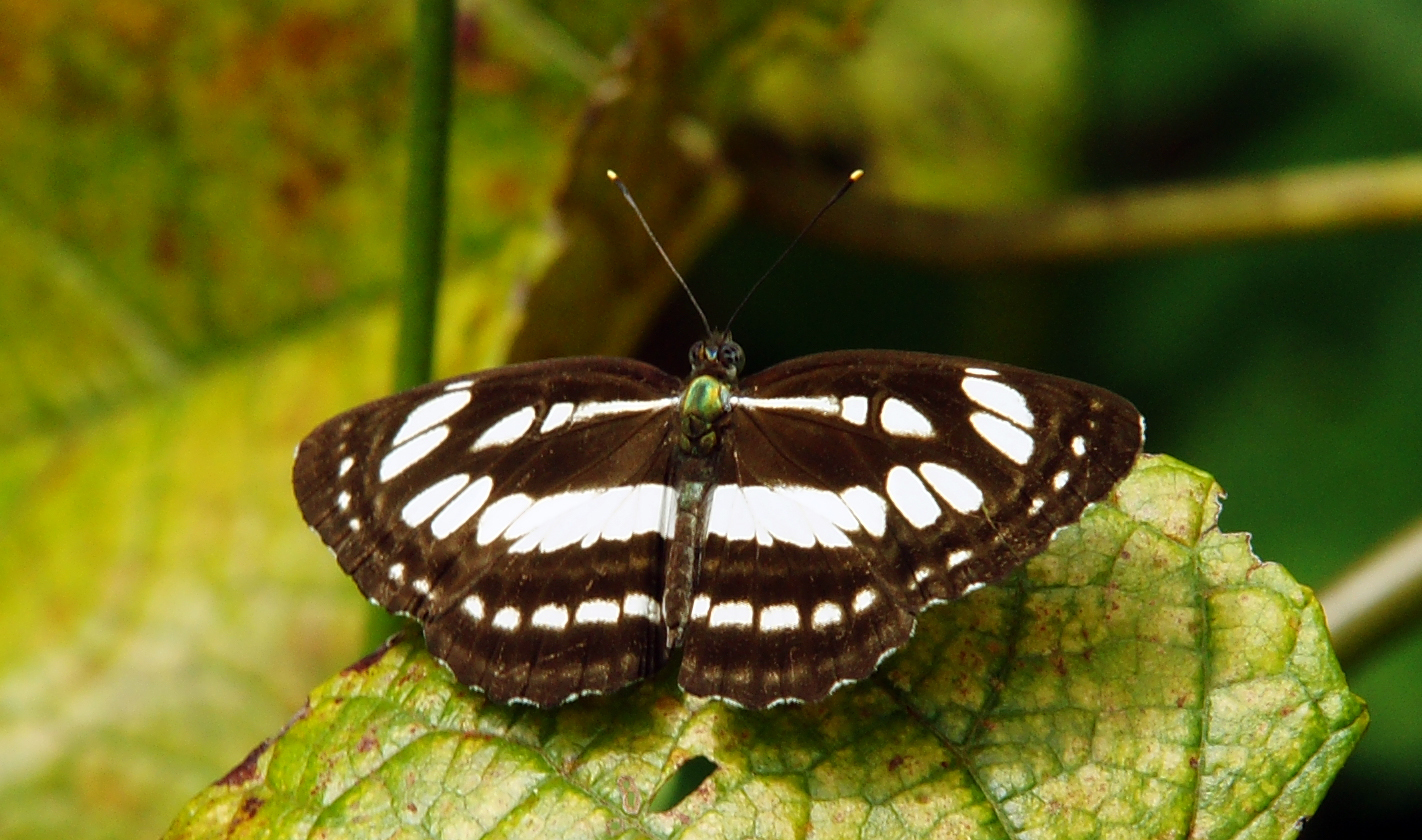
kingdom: Animalia
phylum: Arthropoda
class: Insecta
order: Lepidoptera
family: Nymphalidae
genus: Neptis
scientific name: Neptis hylas
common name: Common sailer
